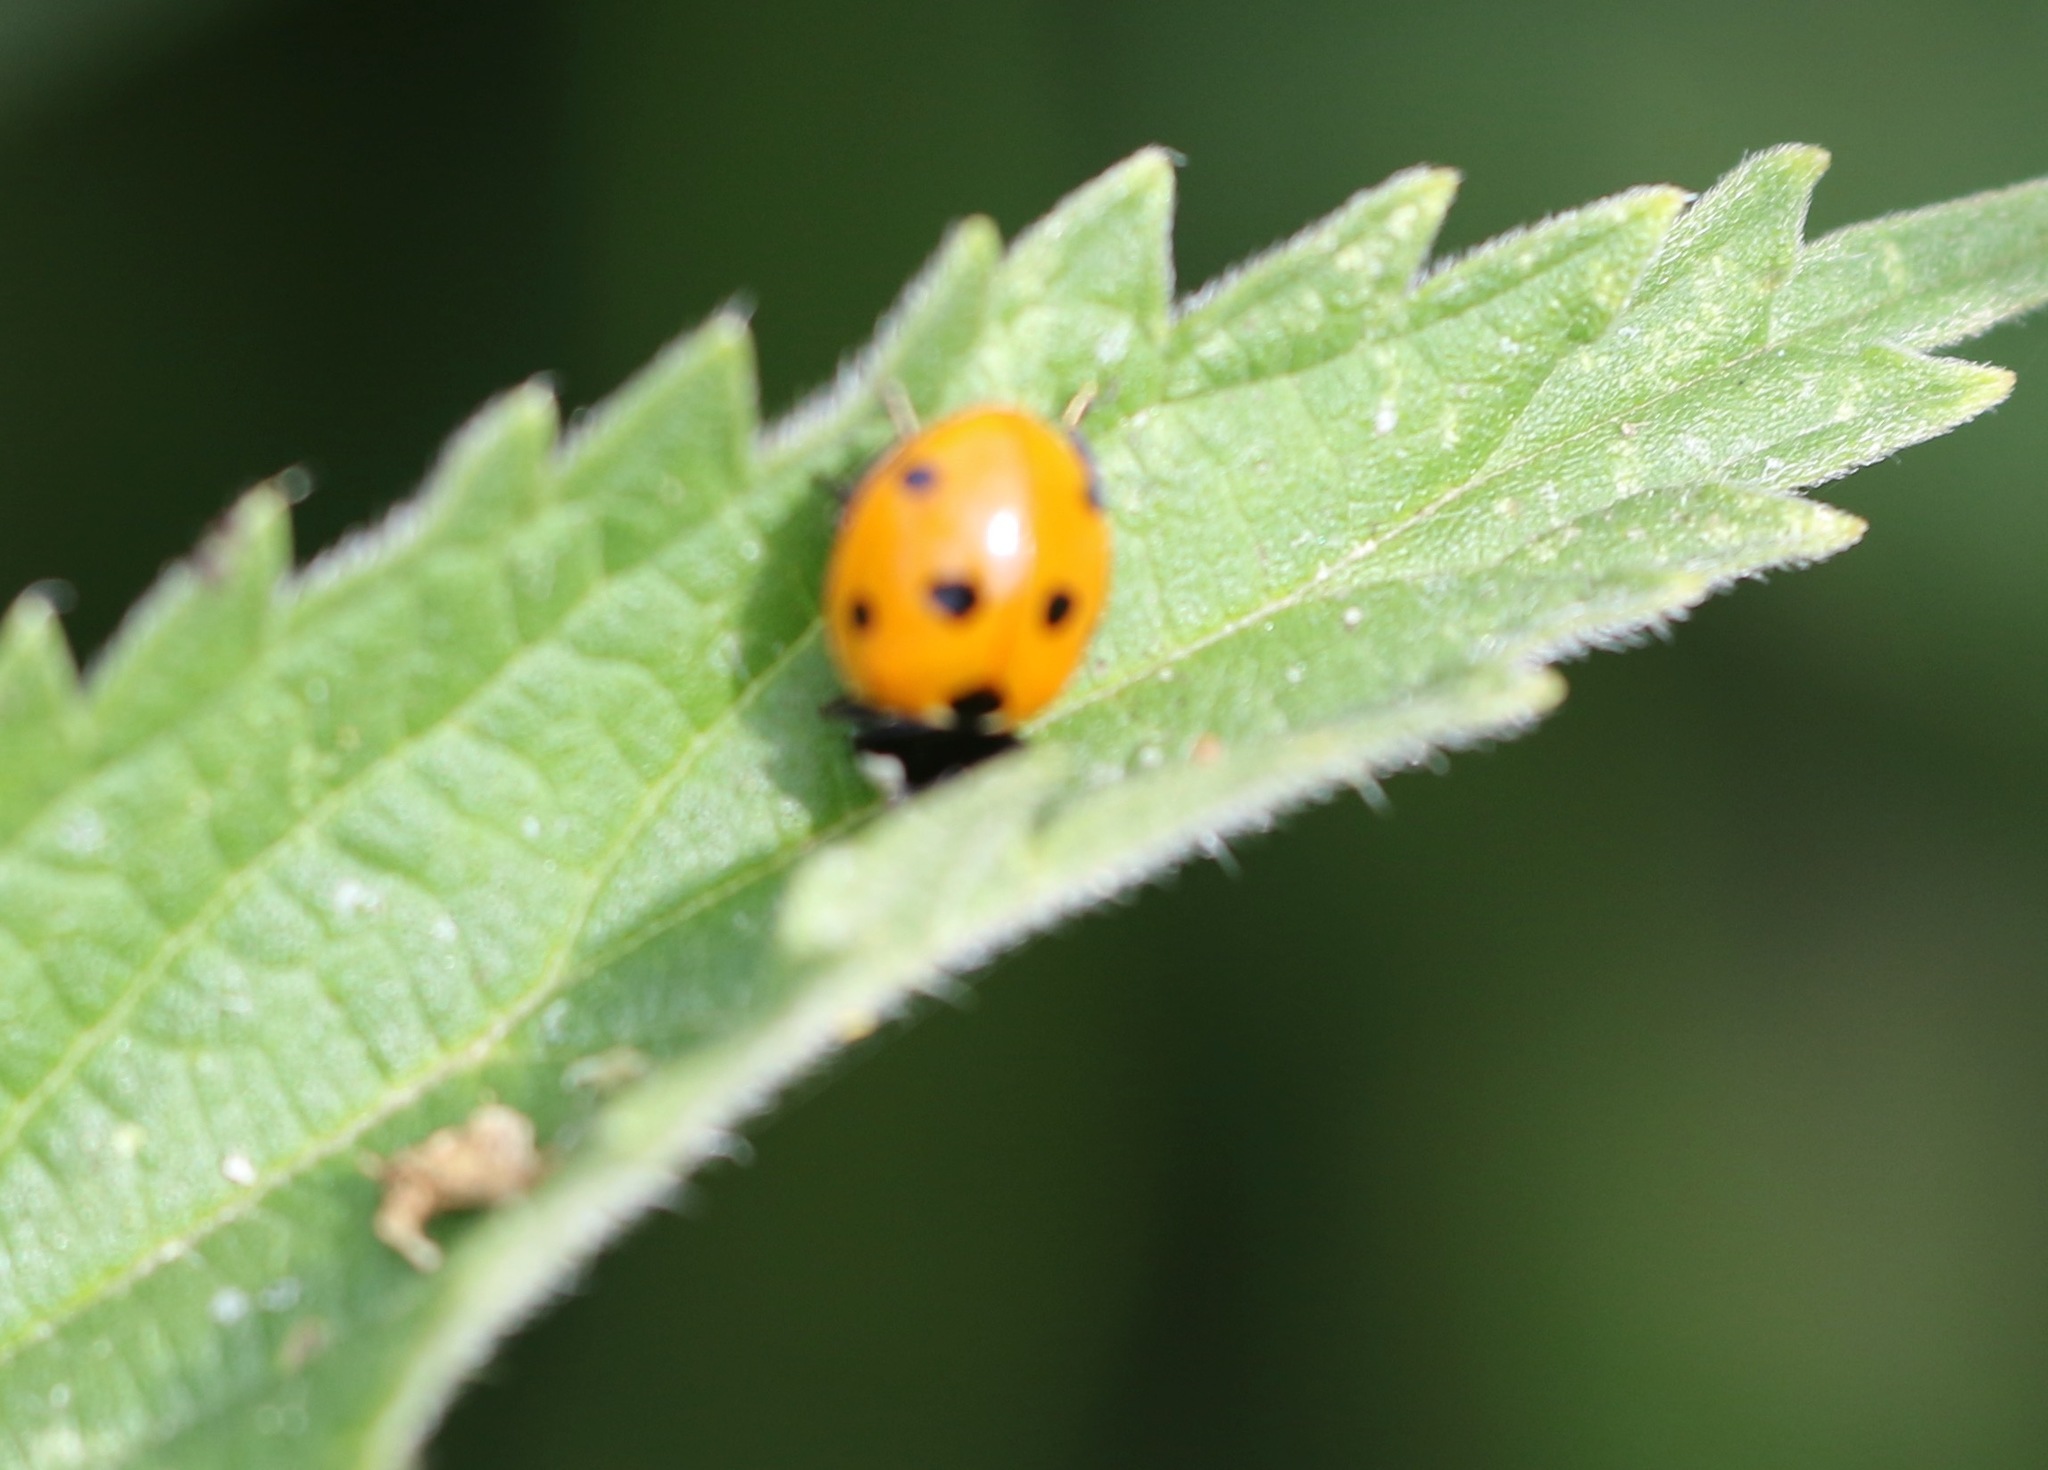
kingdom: Animalia
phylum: Arthropoda
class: Insecta
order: Coleoptera
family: Coccinellidae
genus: Coccinella
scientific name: Coccinella septempunctata
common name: Sevenspotted lady beetle
